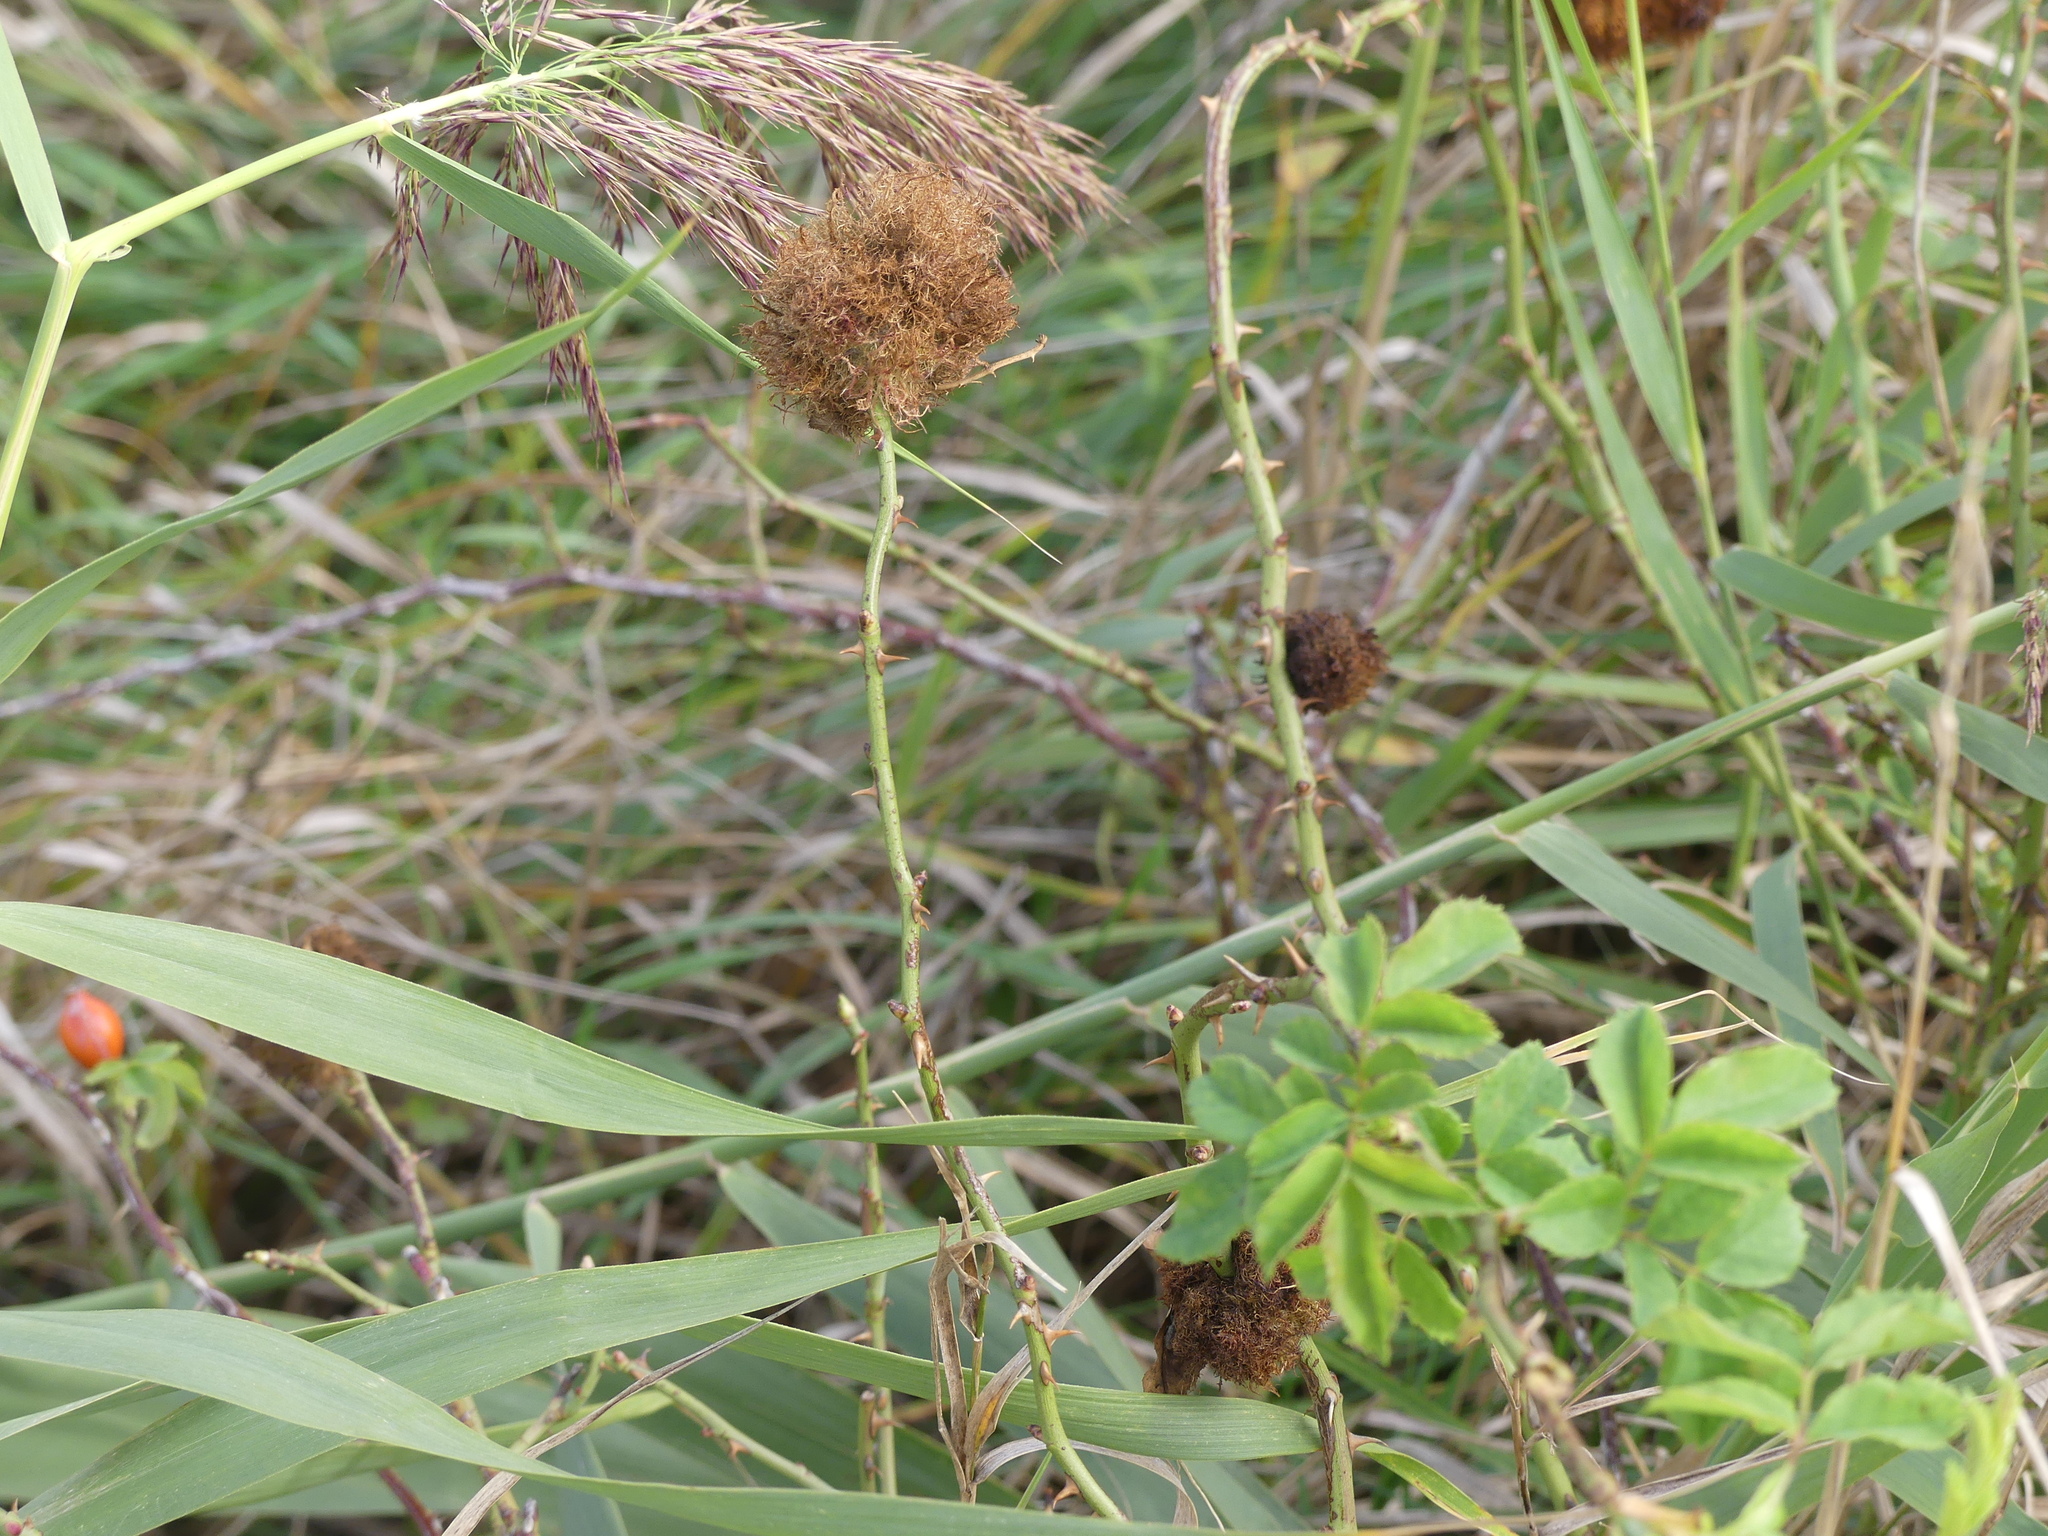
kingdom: Animalia
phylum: Arthropoda
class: Insecta
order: Hymenoptera
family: Cynipidae
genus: Diplolepis
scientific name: Diplolepis rosae
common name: Bedeguar gall
